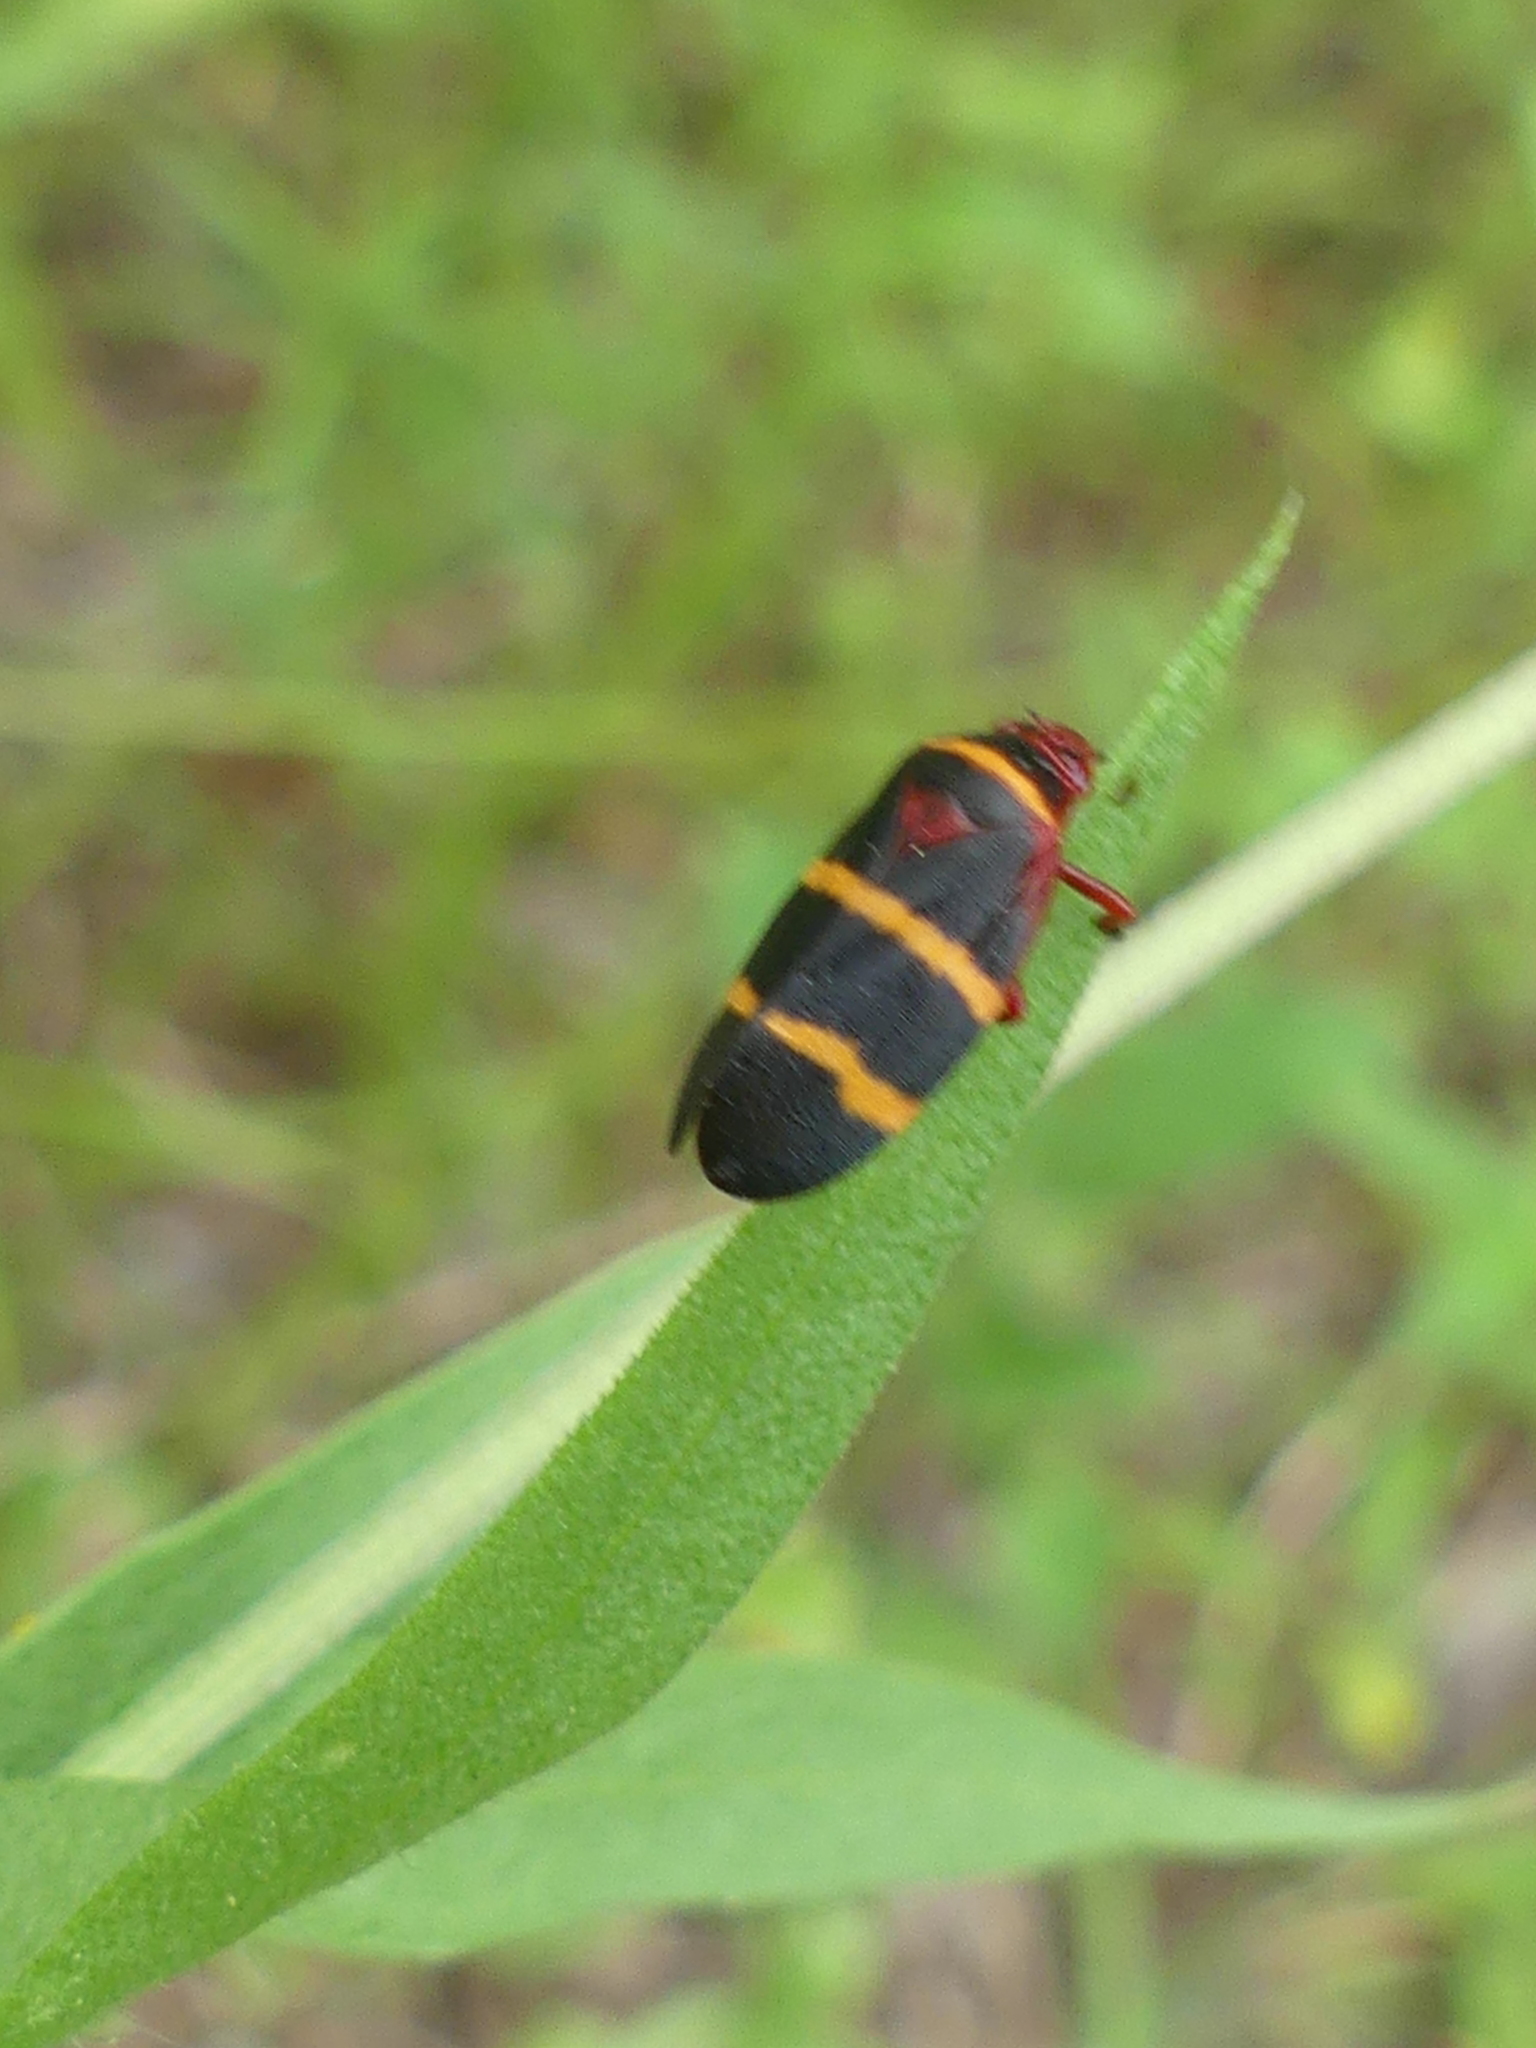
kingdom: Animalia
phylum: Arthropoda
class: Insecta
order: Hemiptera
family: Cercopidae
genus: Prosapia
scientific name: Prosapia bicincta
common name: Twolined spittlebug
